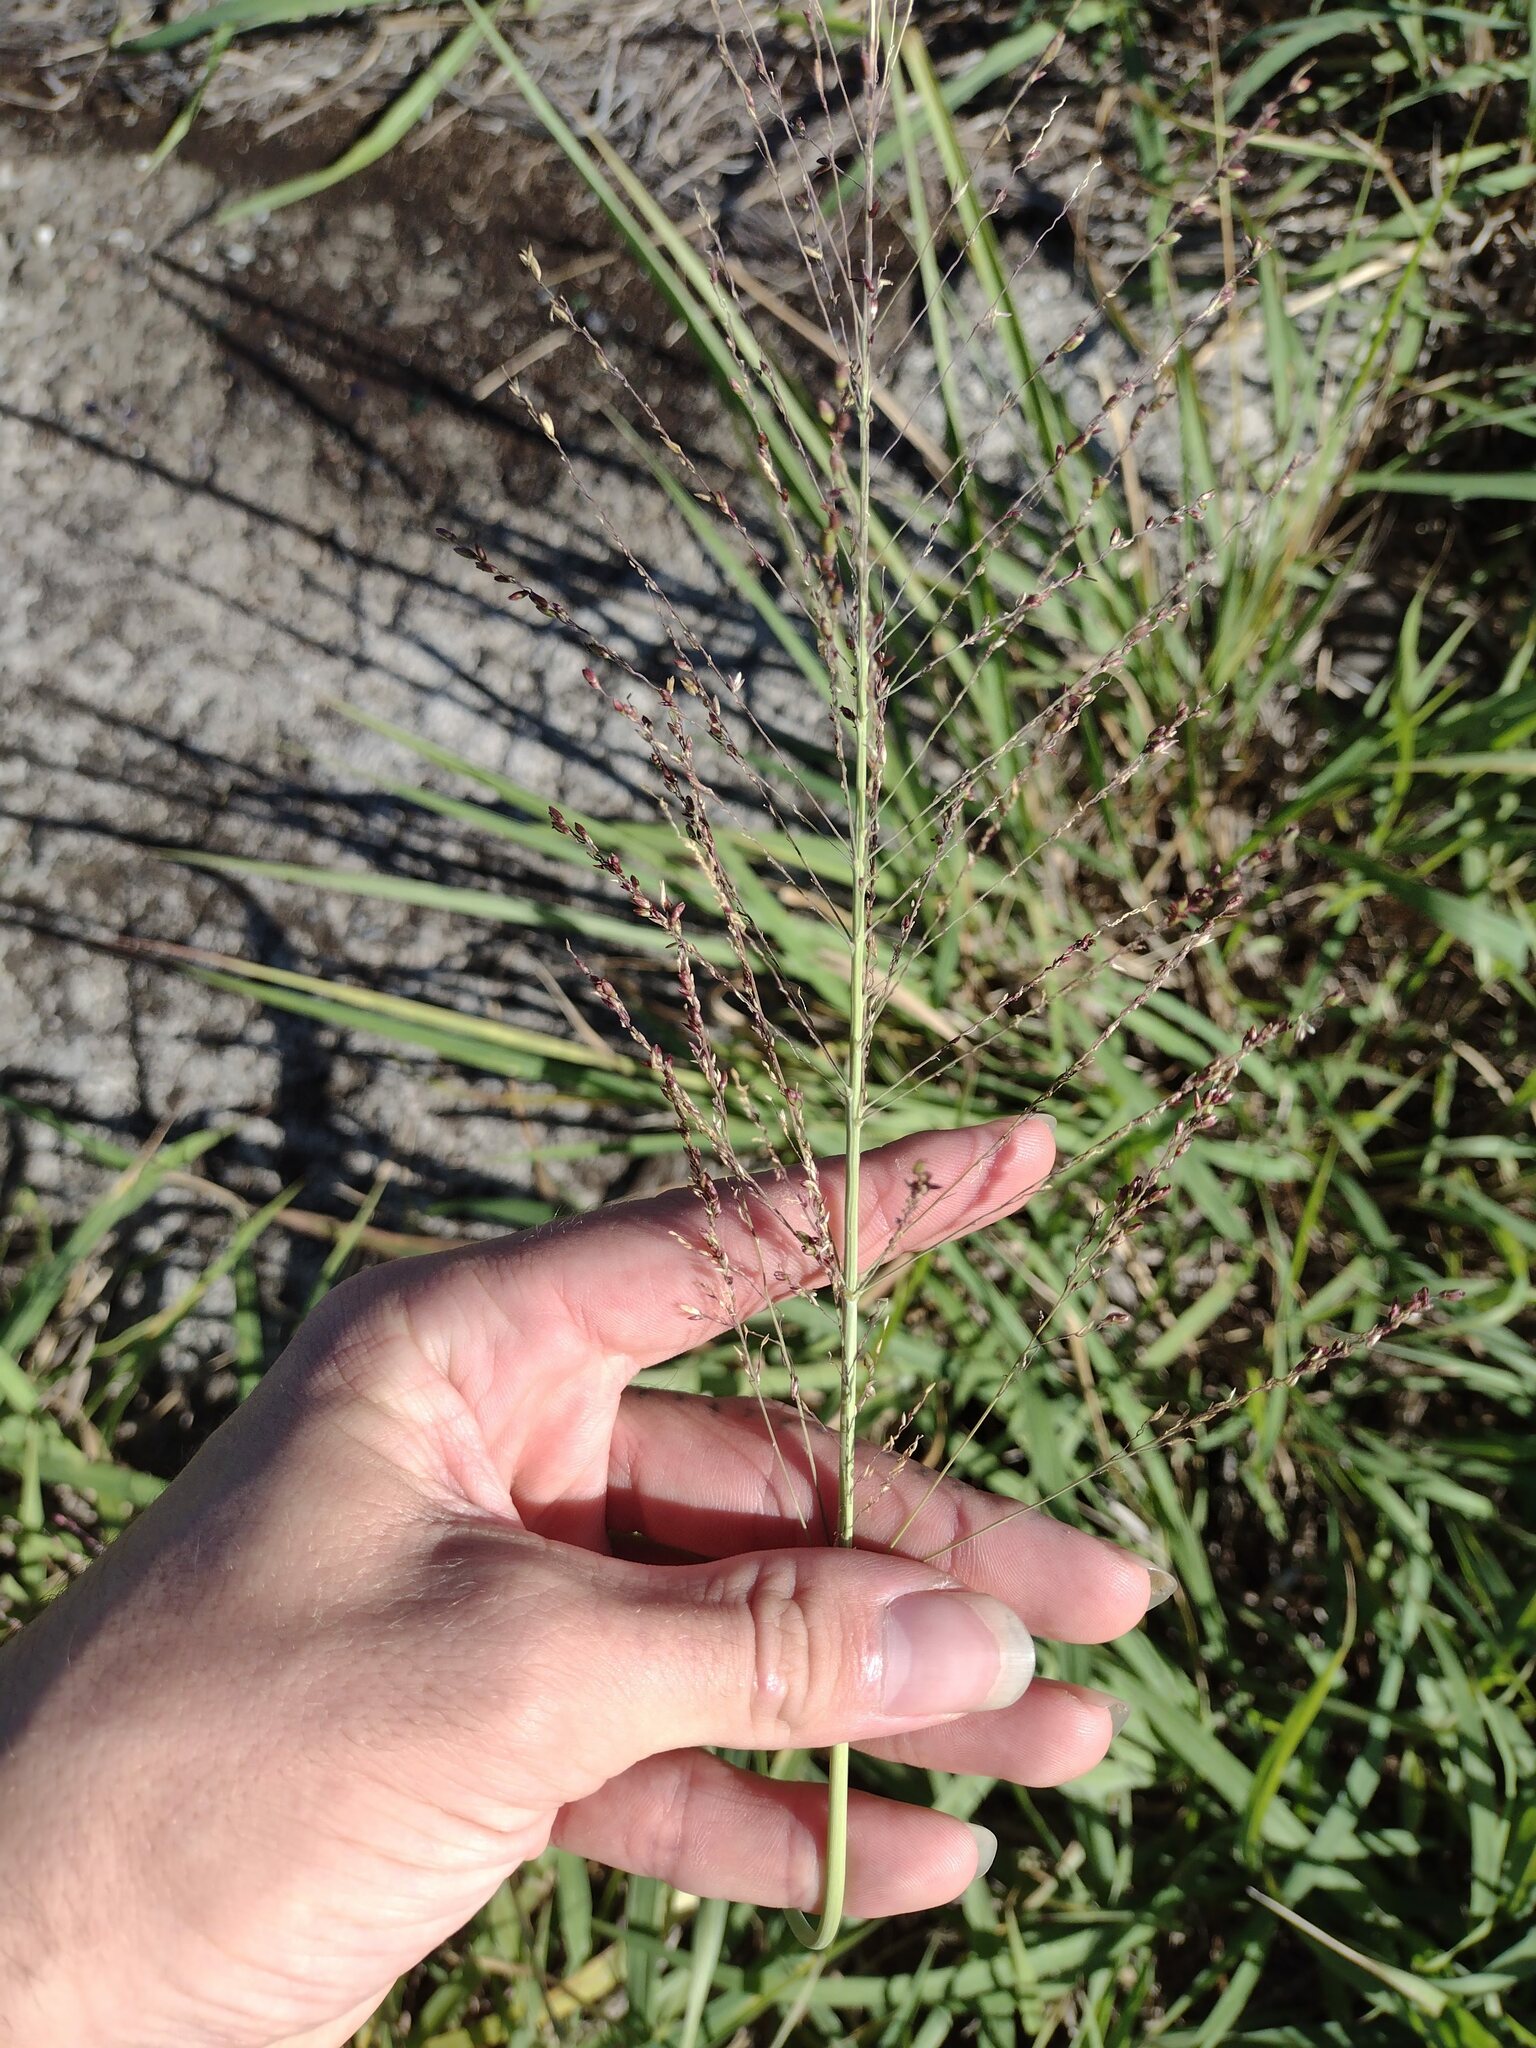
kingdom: Plantae
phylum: Tracheophyta
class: Liliopsida
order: Poales
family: Poaceae
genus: Megathyrsus
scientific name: Megathyrsus maximus
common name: Guineagrass
